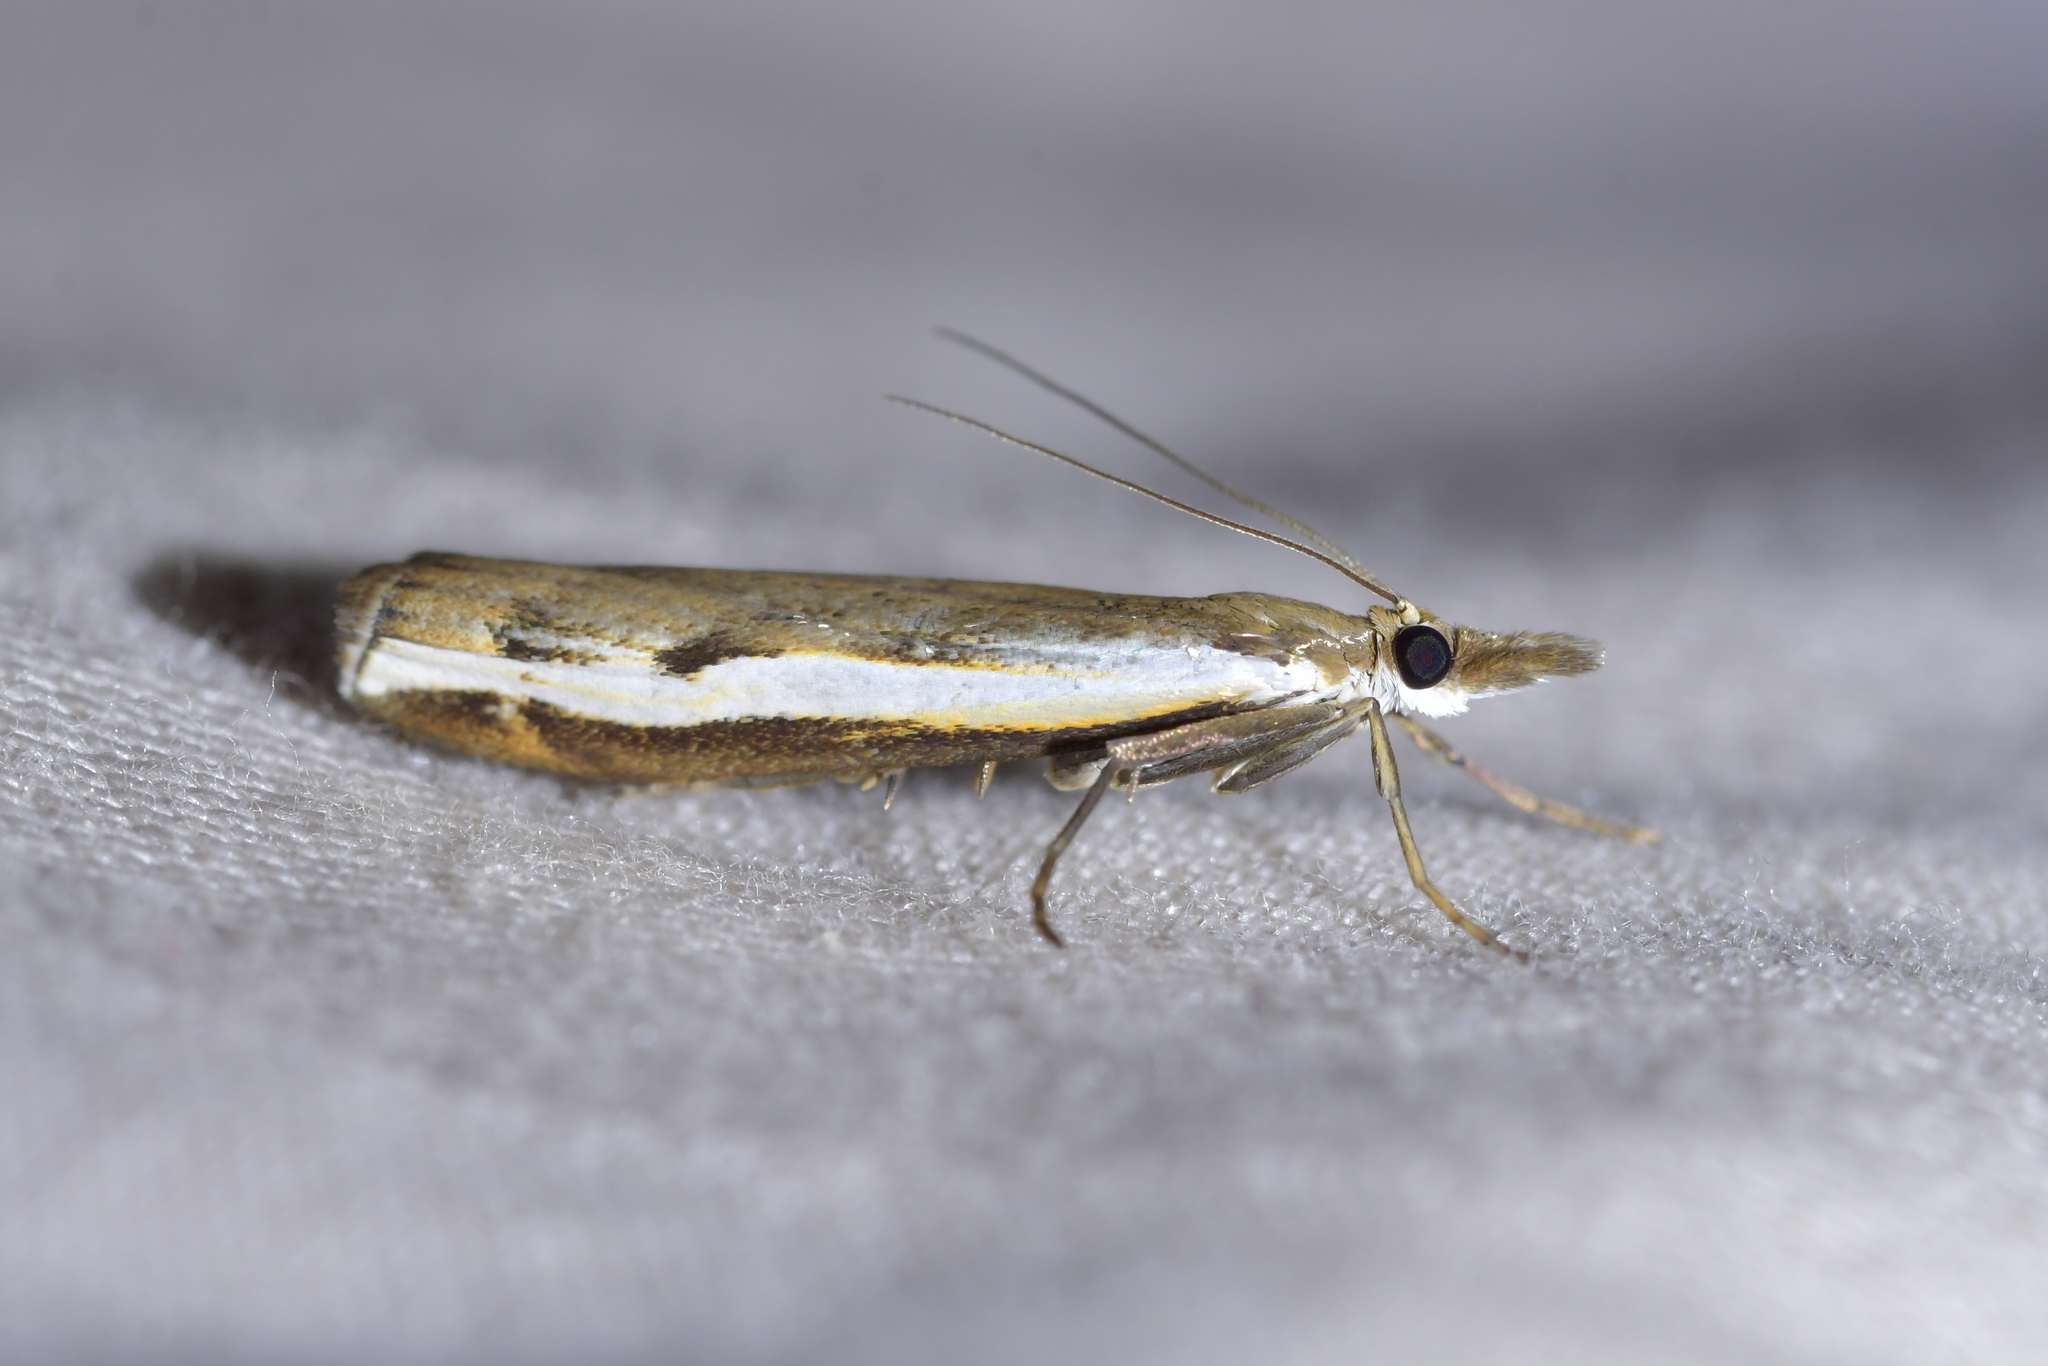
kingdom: Animalia
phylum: Arthropoda
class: Insecta
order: Lepidoptera
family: Crambidae
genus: Orocrambus
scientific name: Orocrambus flexuosellus
